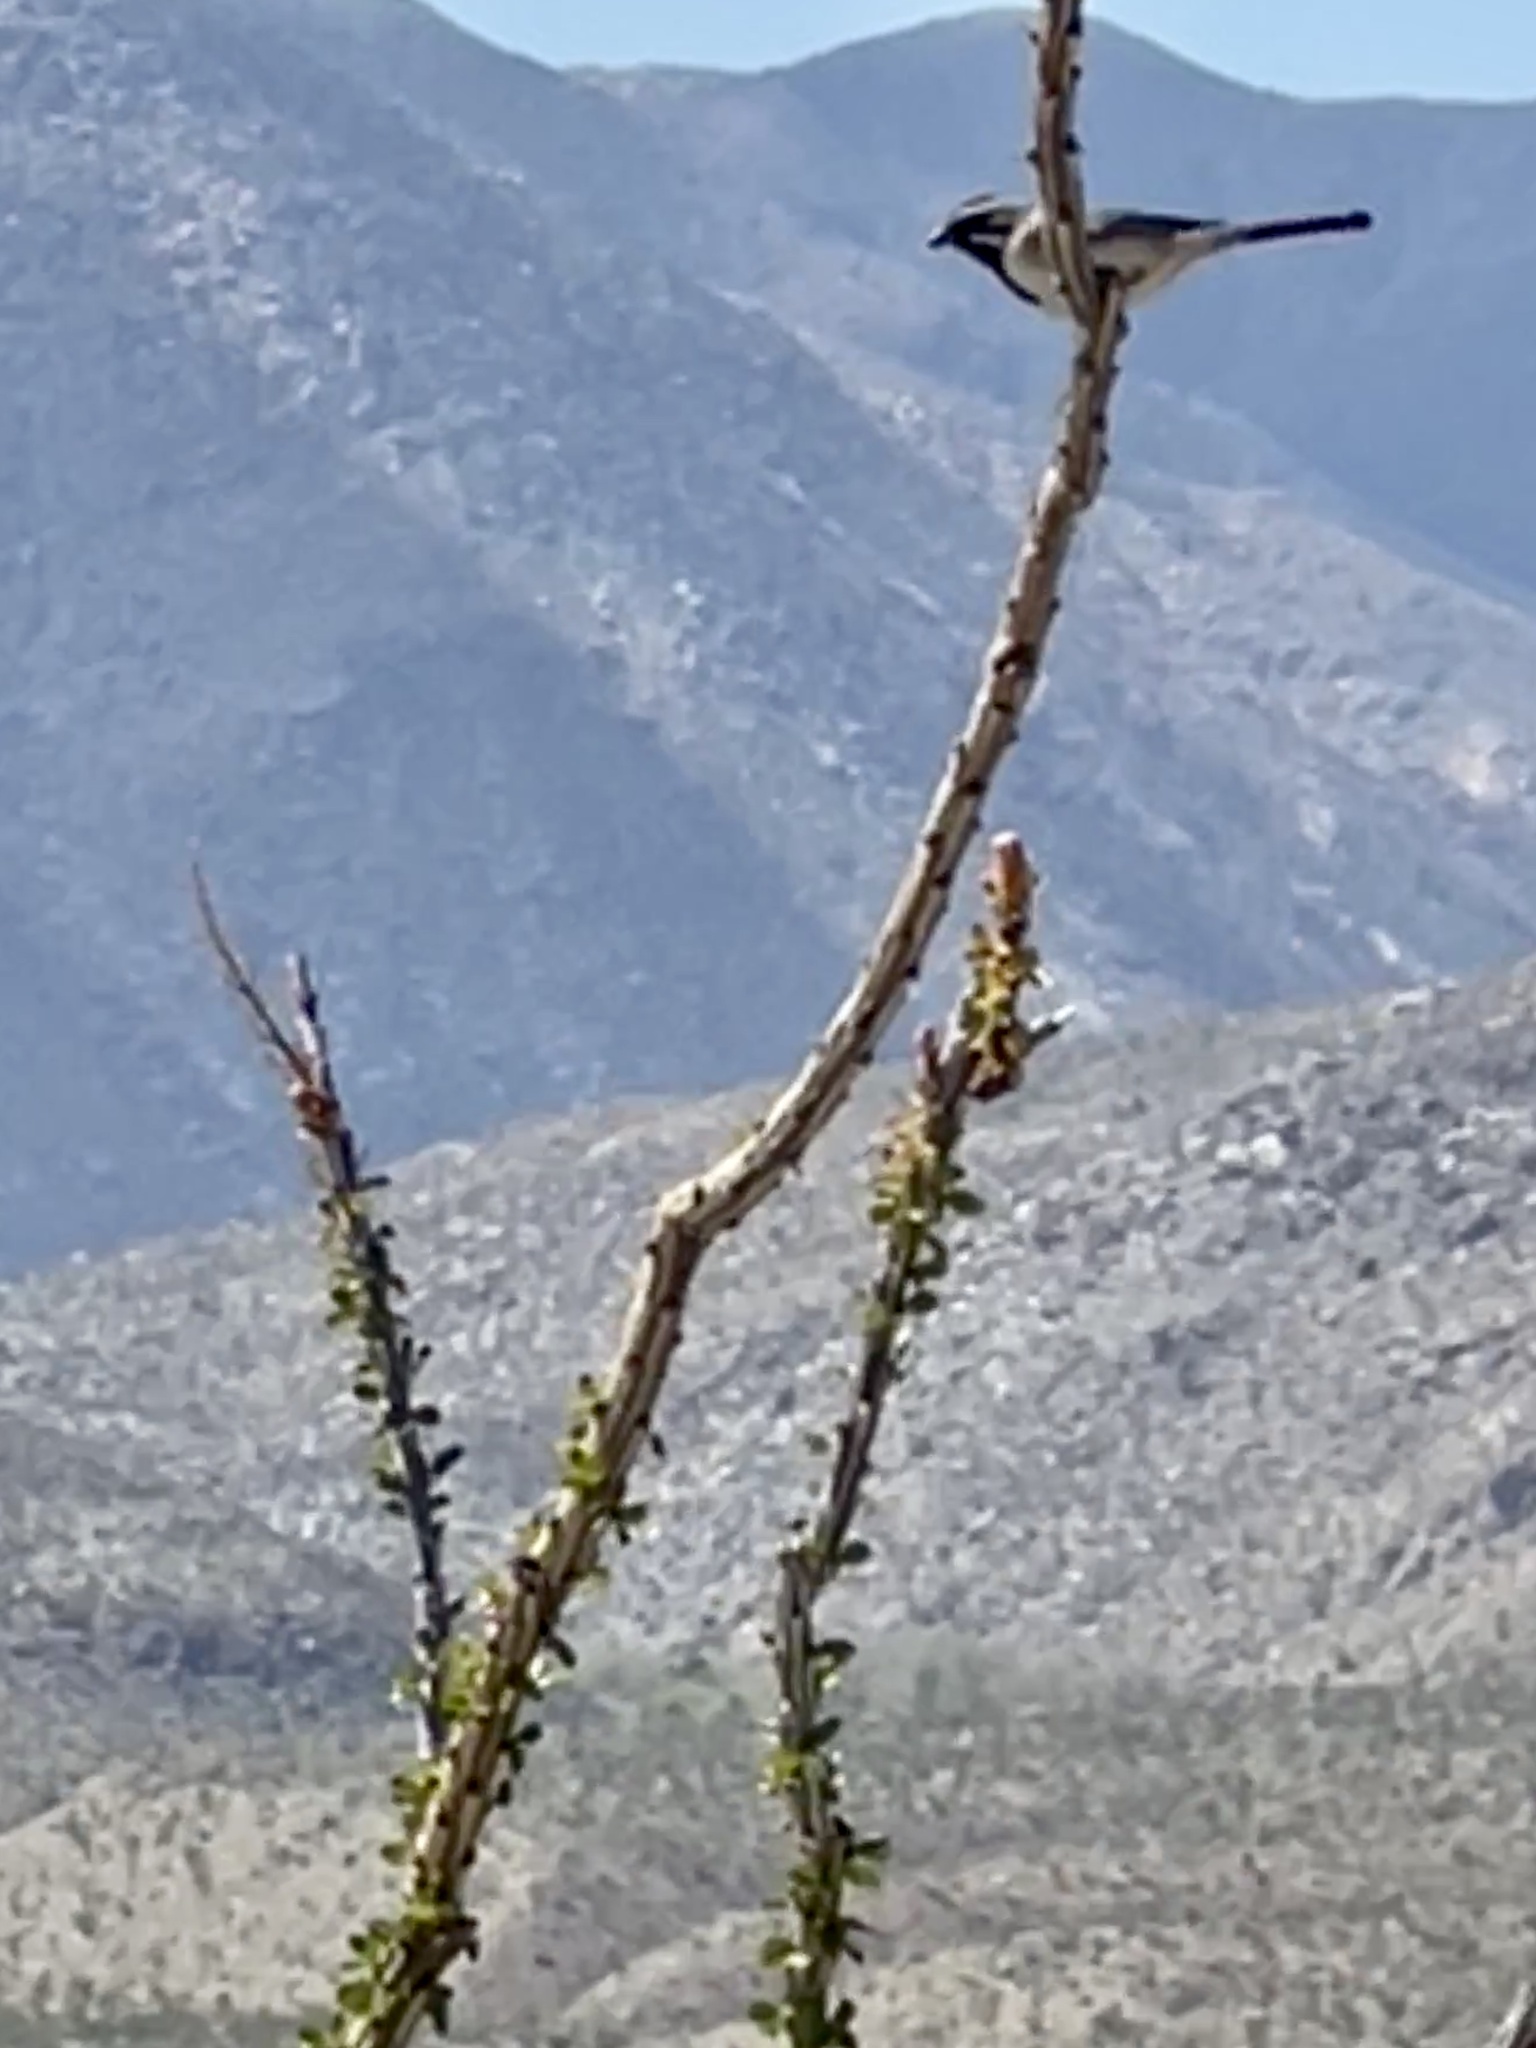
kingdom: Animalia
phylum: Chordata
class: Aves
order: Passeriformes
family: Passerellidae
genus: Amphispiza
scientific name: Amphispiza bilineata
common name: Black-throated sparrow
